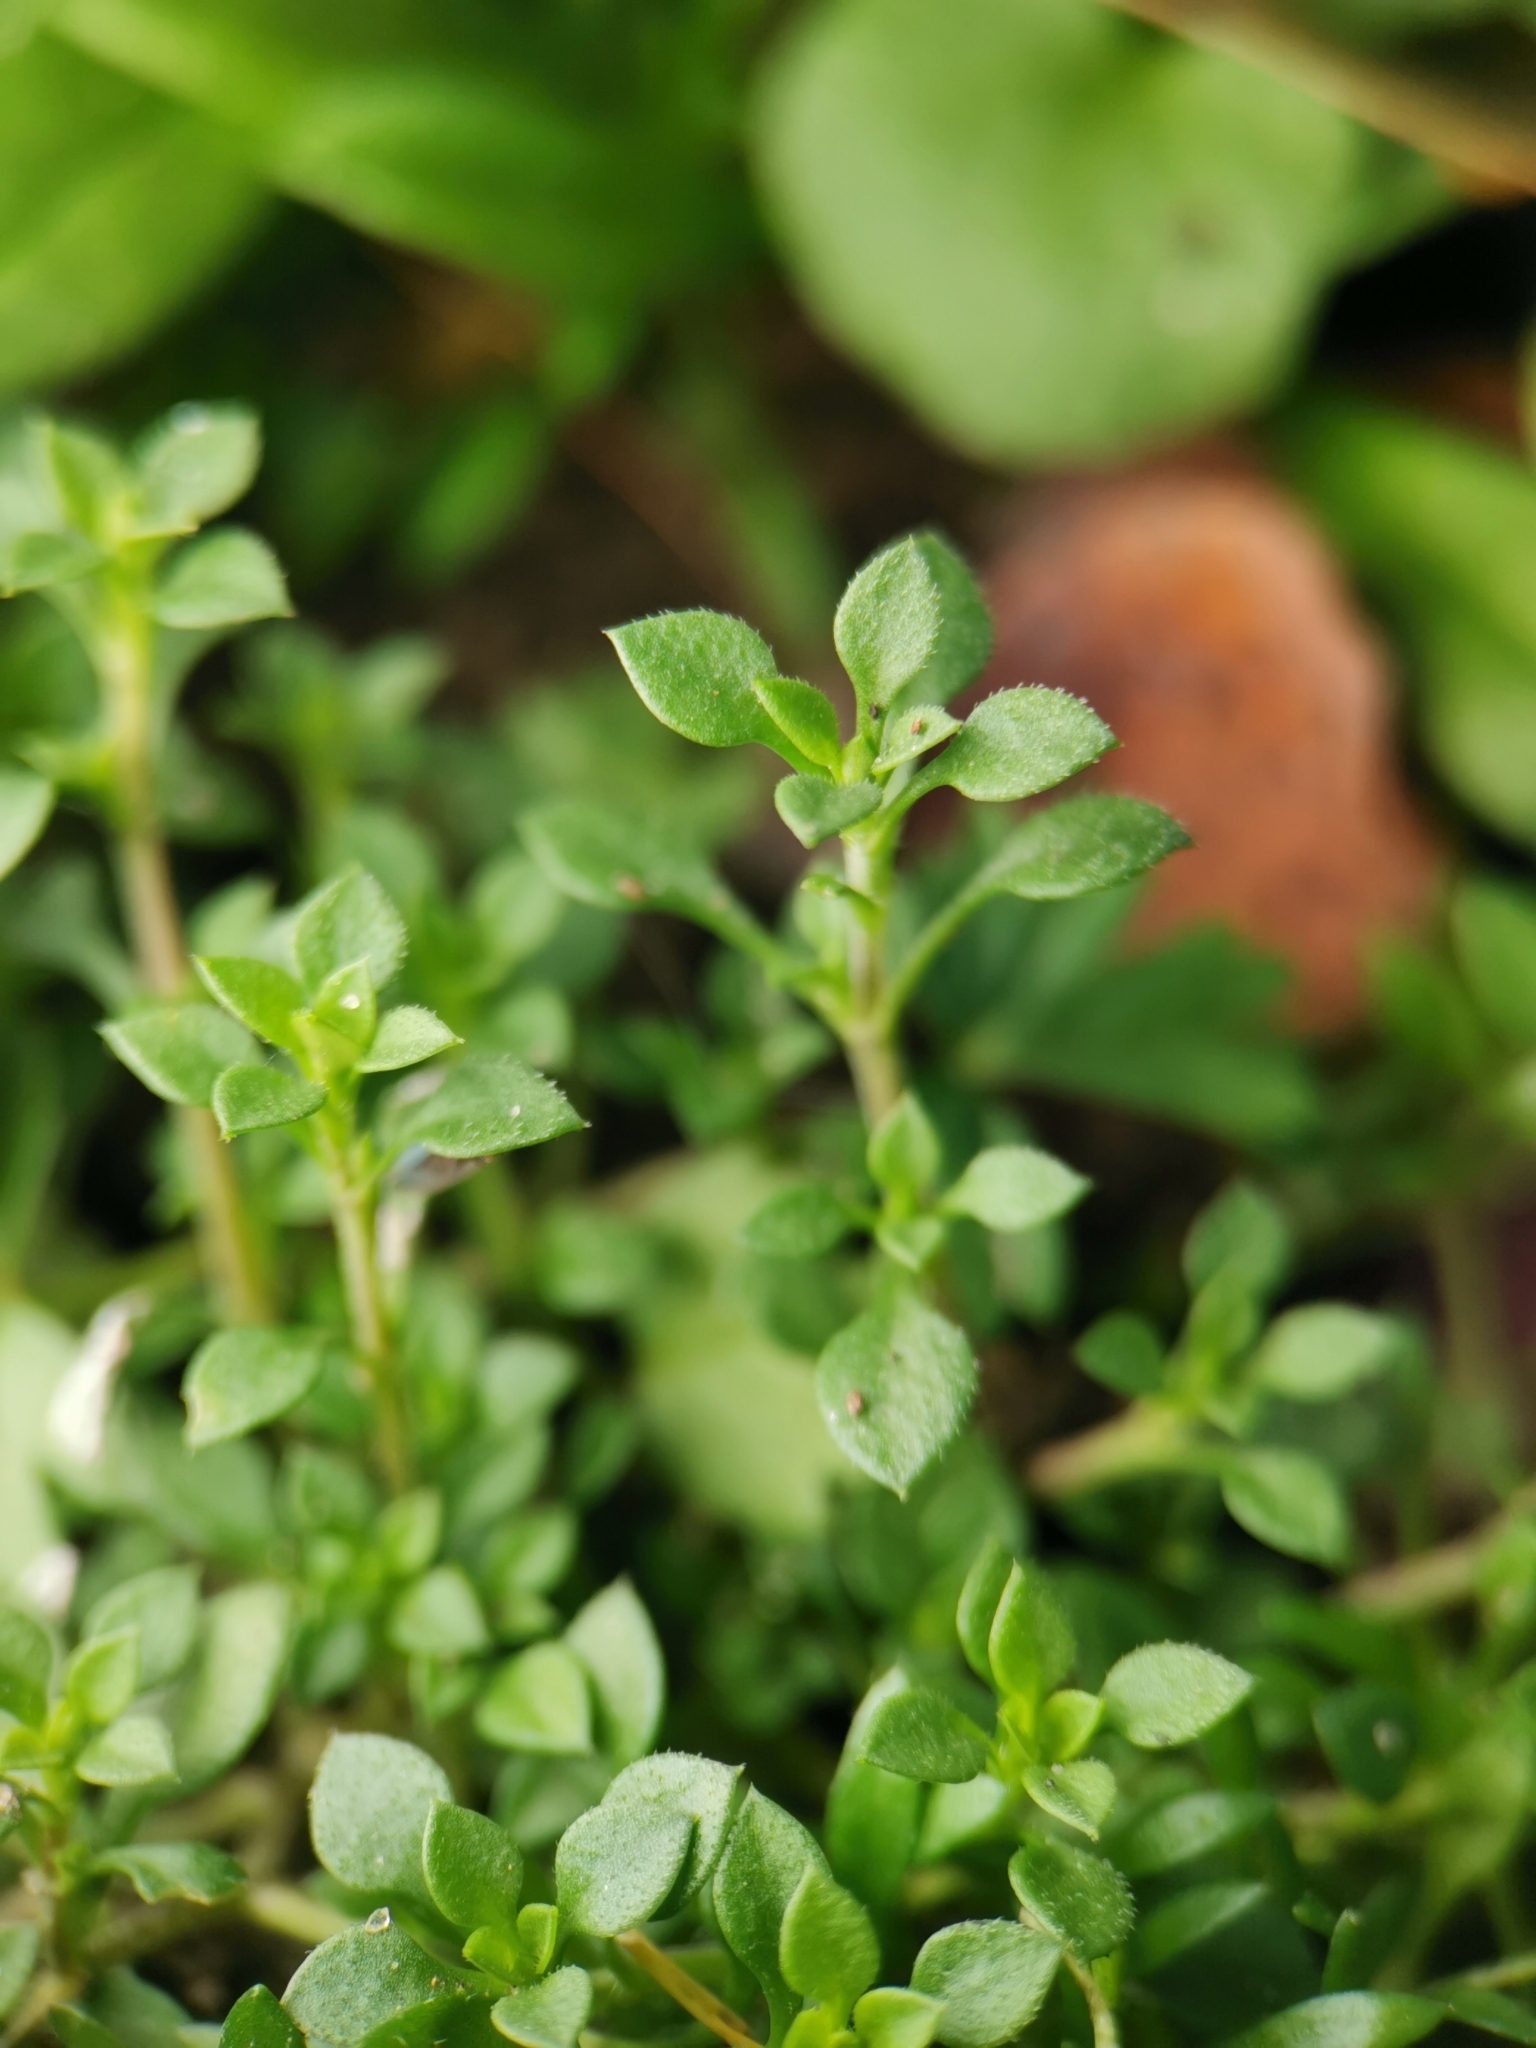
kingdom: Plantae
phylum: Tracheophyta
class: Magnoliopsida
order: Caryophyllales
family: Caryophyllaceae
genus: Arenaria
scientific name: Arenaria serpyllifolia
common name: Thyme-leaved sandwort
